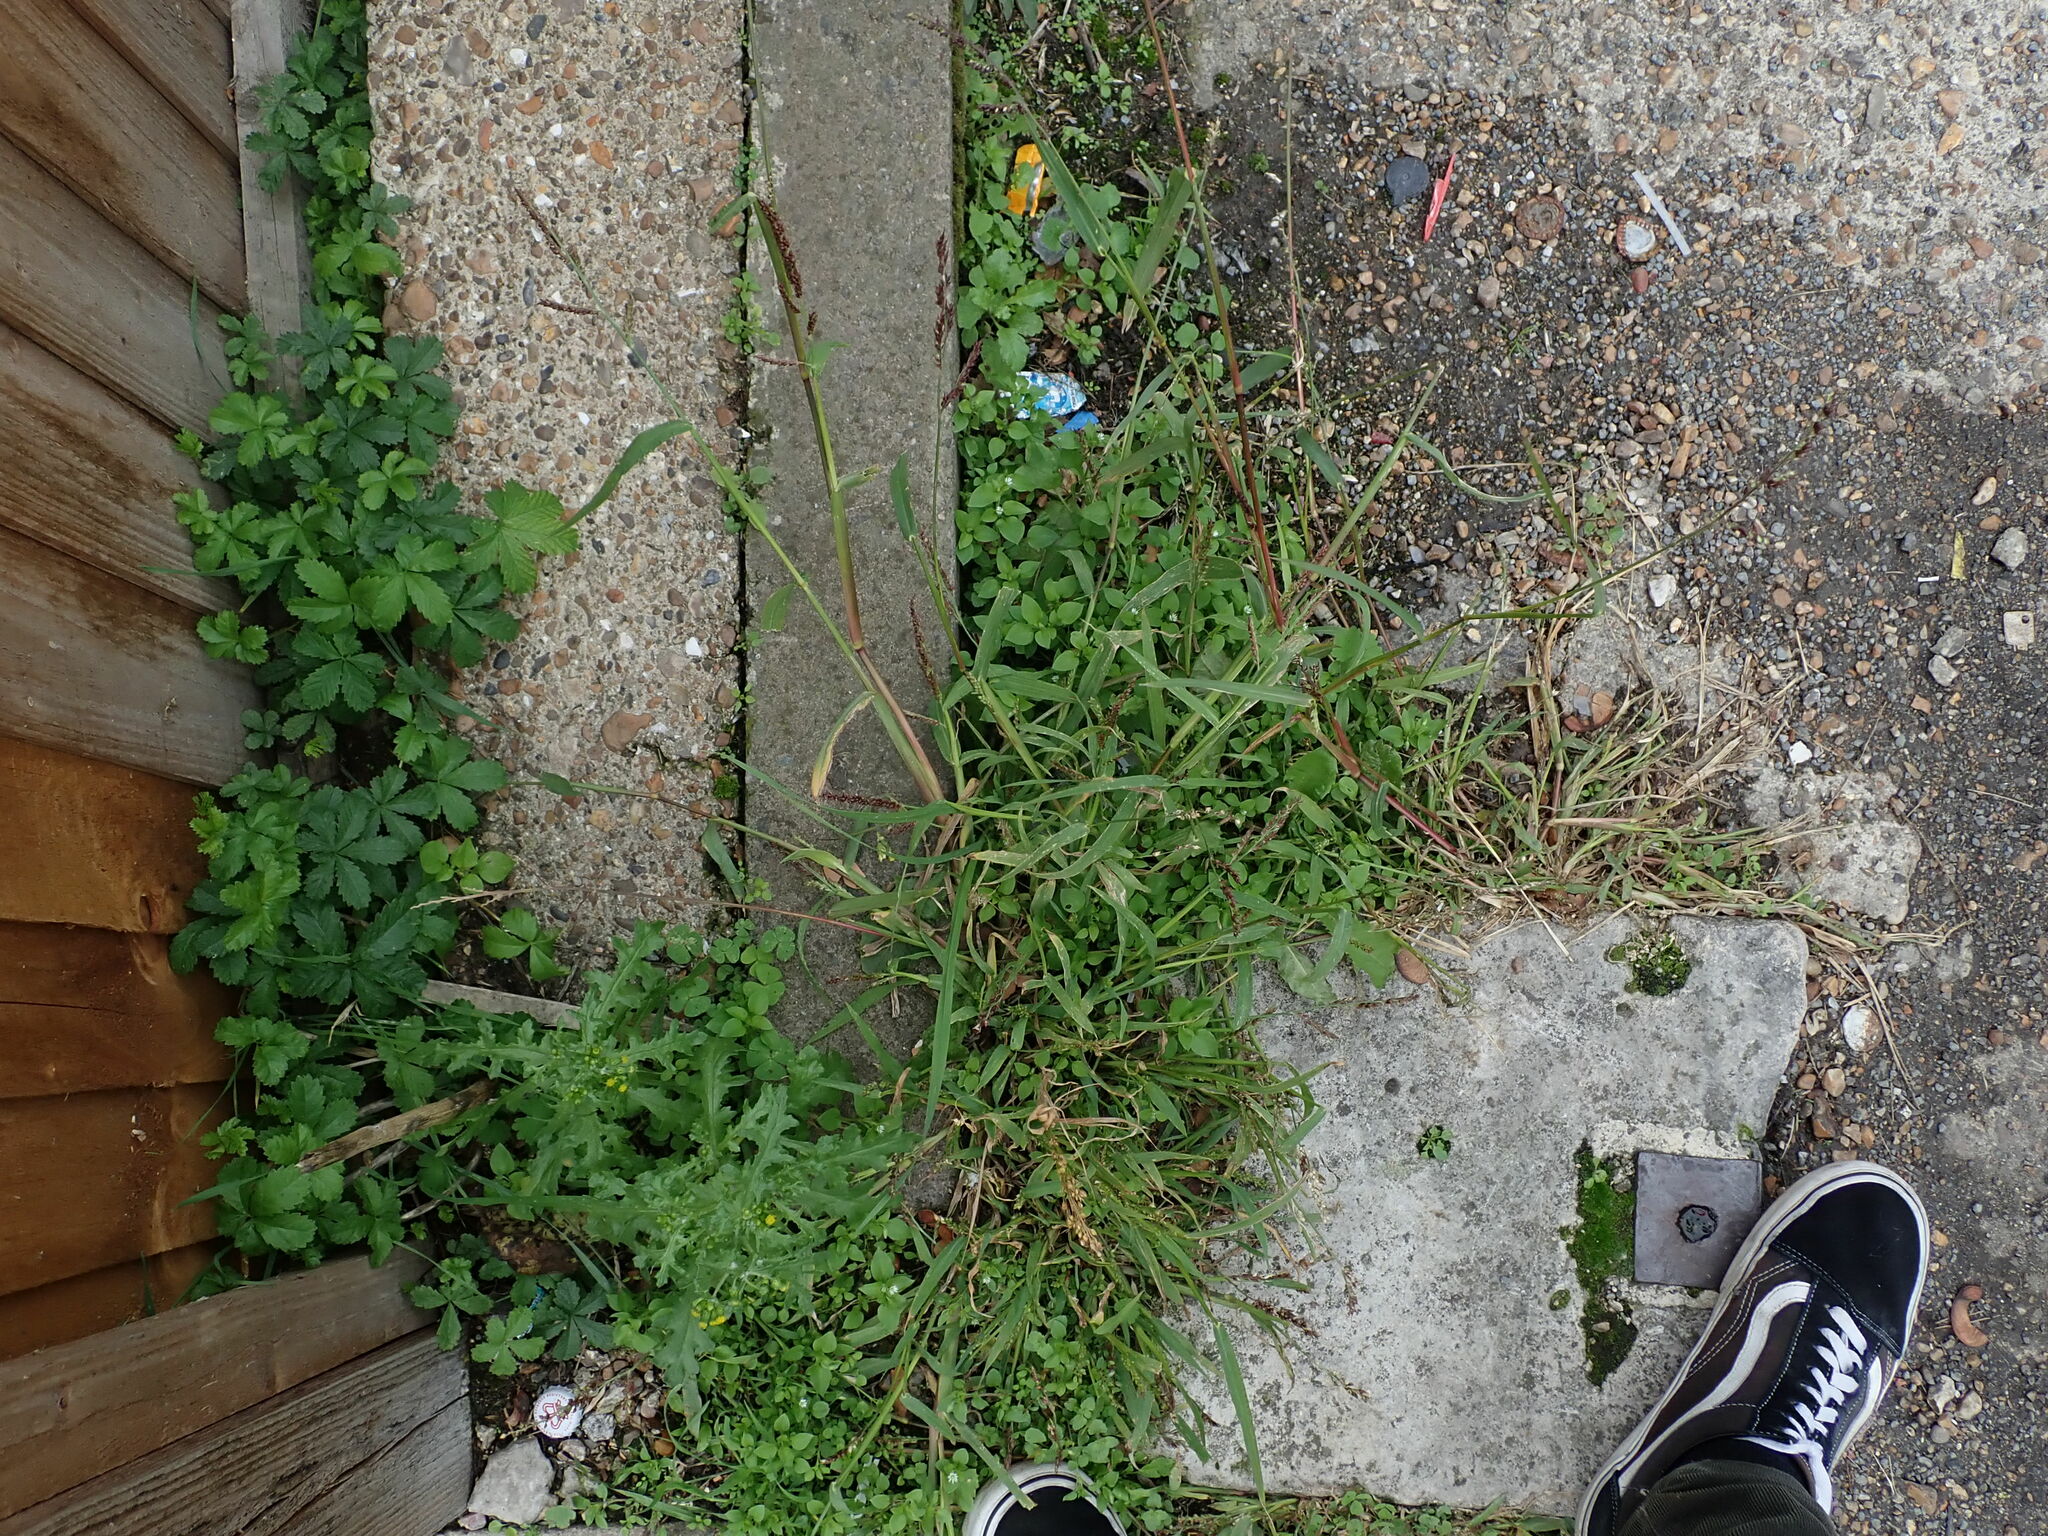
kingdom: Plantae
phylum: Tracheophyta
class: Liliopsida
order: Poales
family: Poaceae
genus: Echinochloa
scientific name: Echinochloa crus-galli
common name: Cockspur
